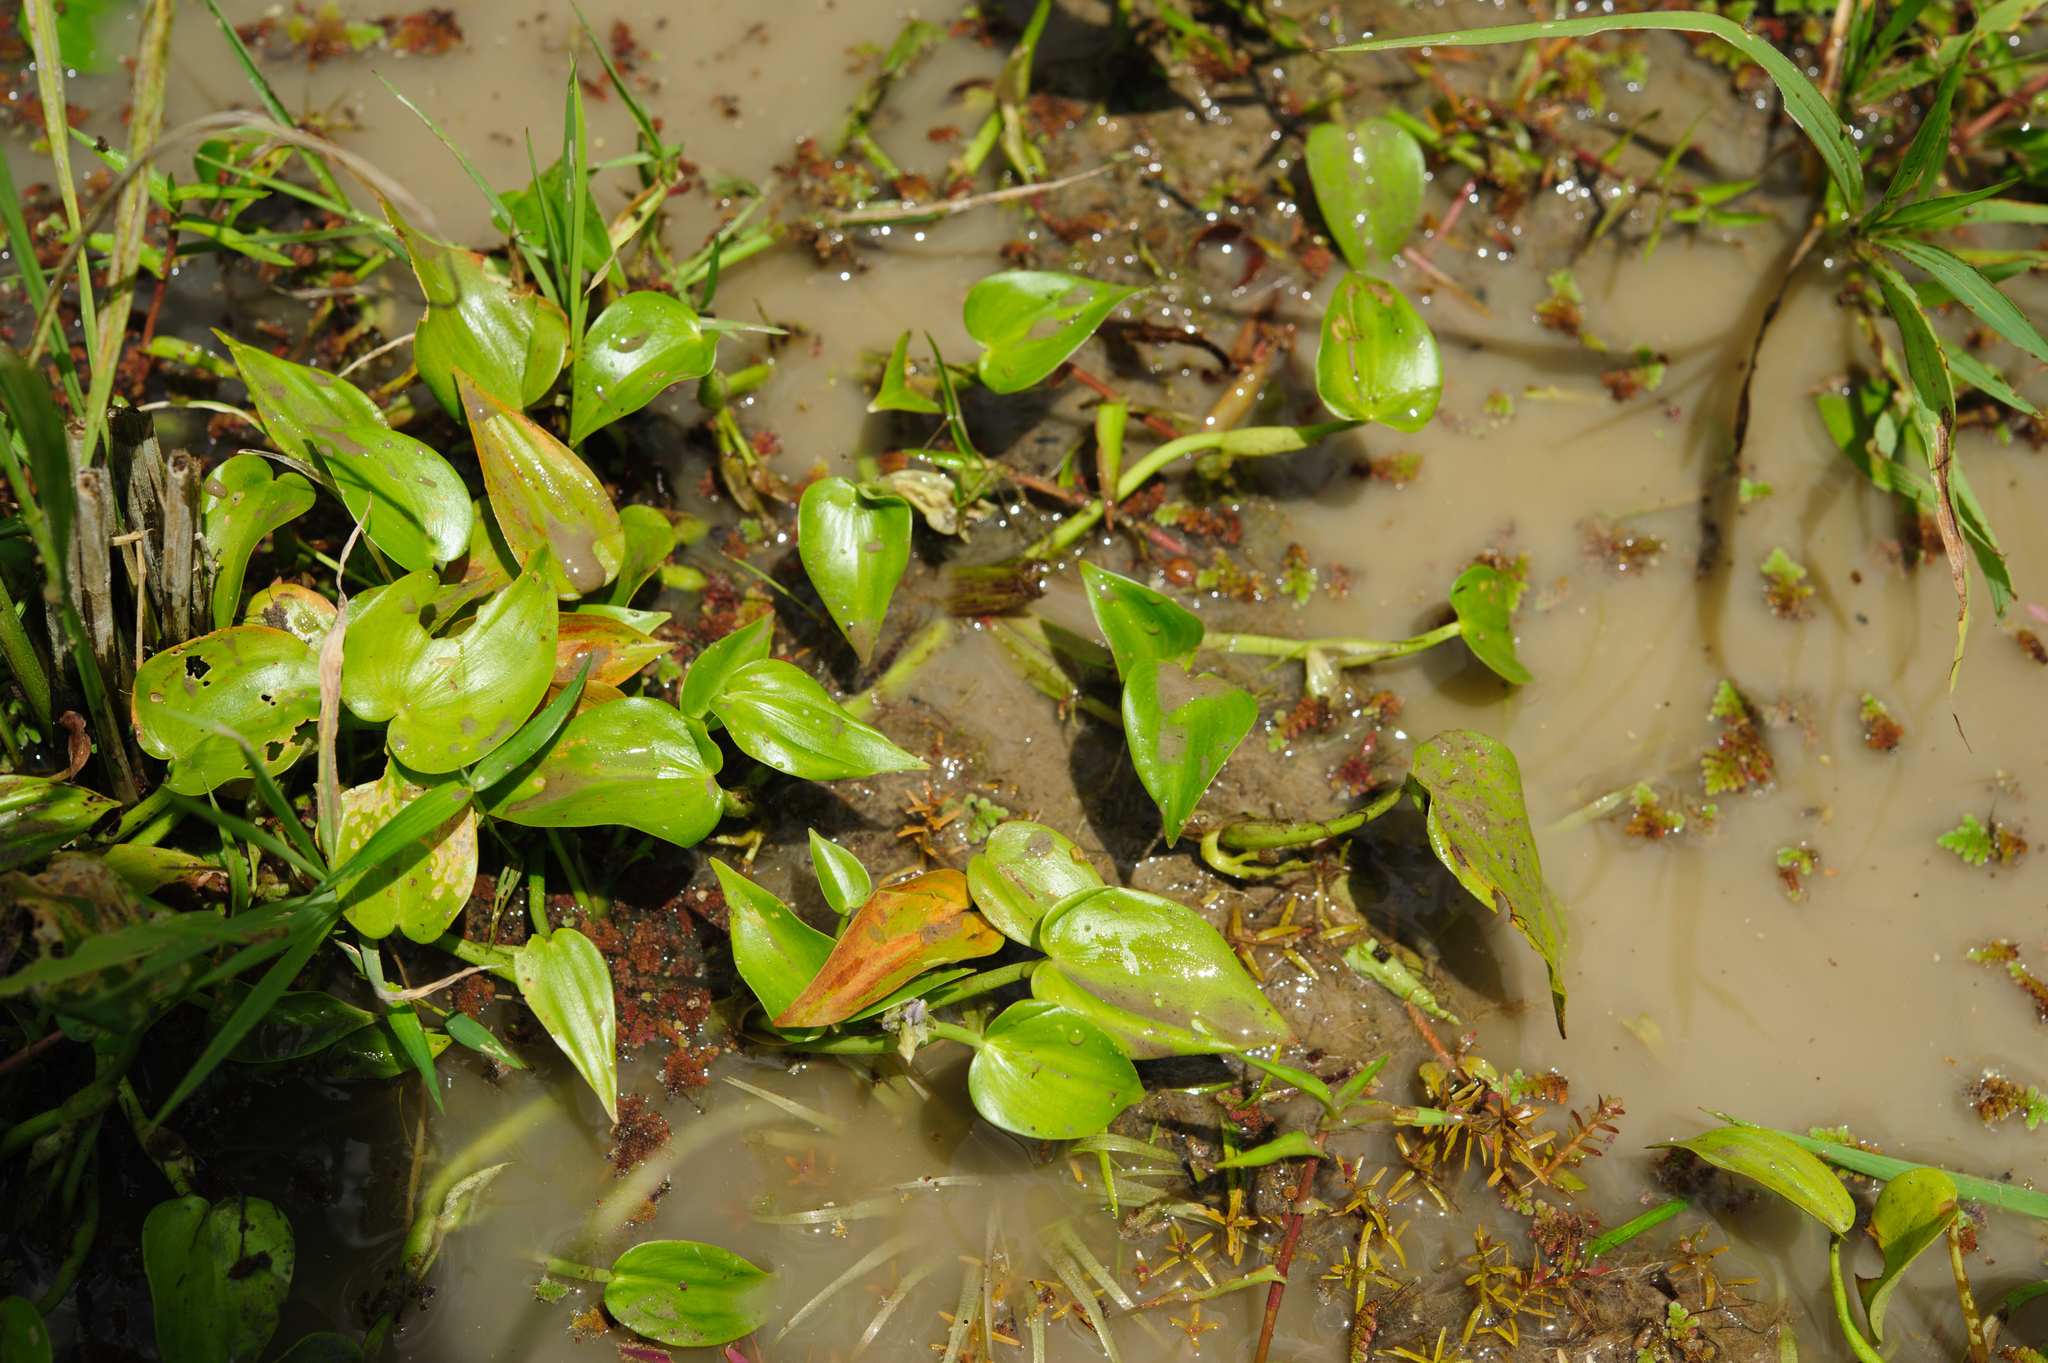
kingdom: Plantae
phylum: Tracheophyta
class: Liliopsida
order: Commelinales
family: Pontederiaceae
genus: Pontederia
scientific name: Pontederia vaginalis
